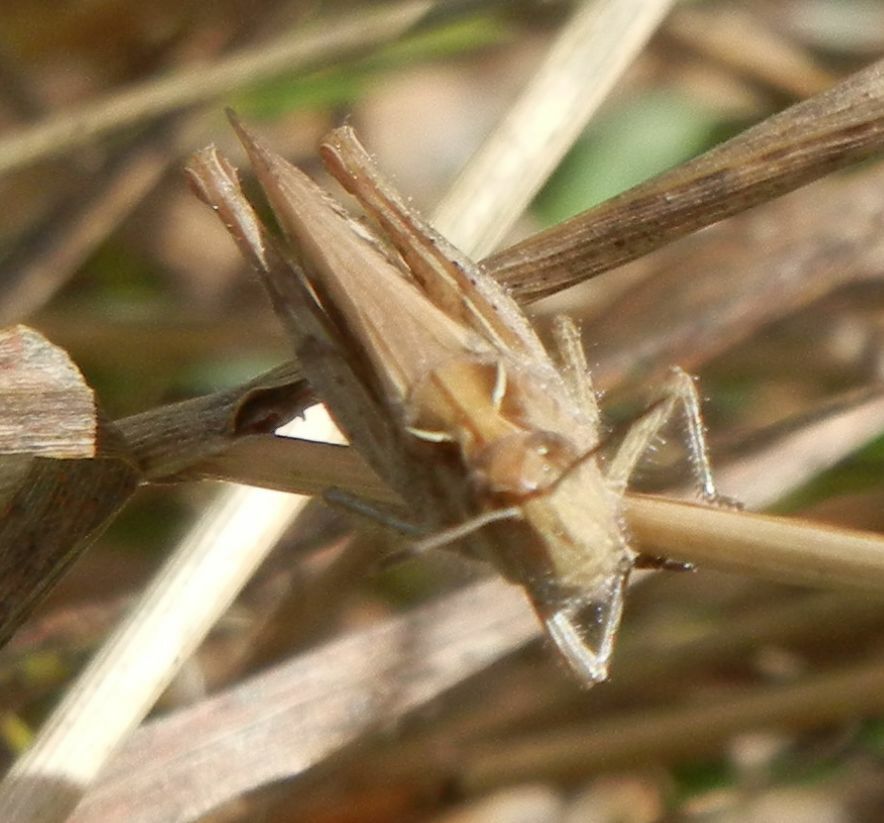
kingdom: Animalia
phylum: Arthropoda
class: Insecta
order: Orthoptera
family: Acrididae
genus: Chorthippus
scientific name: Chorthippus brunneus
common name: Field grasshopper
